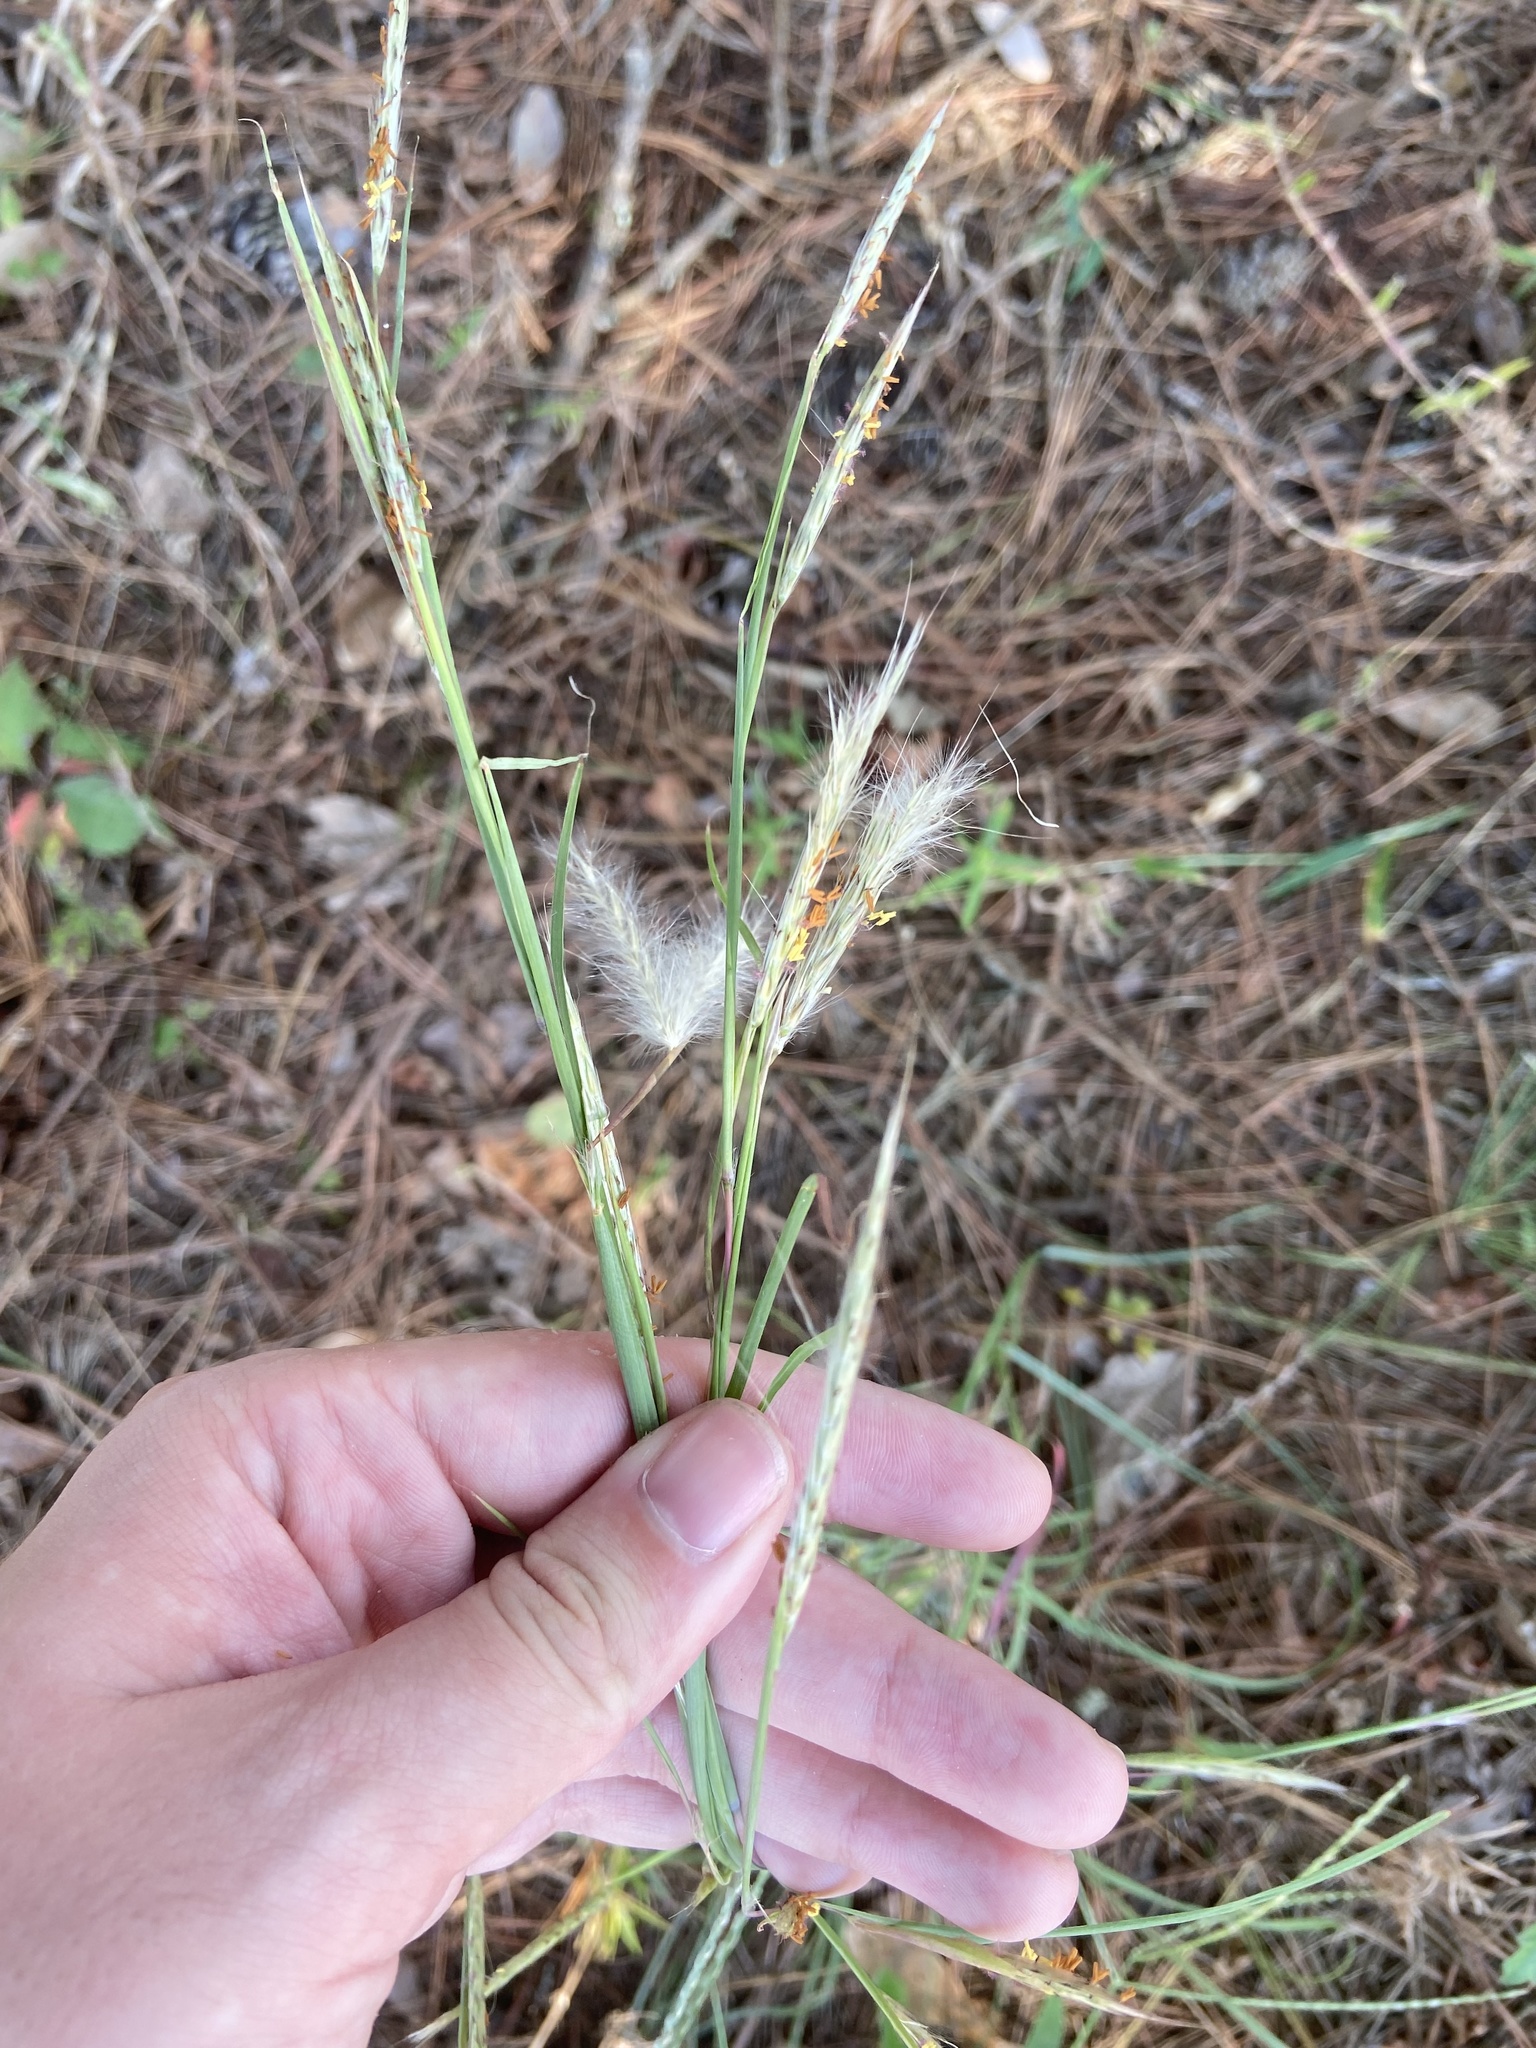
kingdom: Plantae
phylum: Tracheophyta
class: Liliopsida
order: Poales
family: Poaceae
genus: Andropogon
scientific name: Andropogon ternarius
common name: Split bluestem
